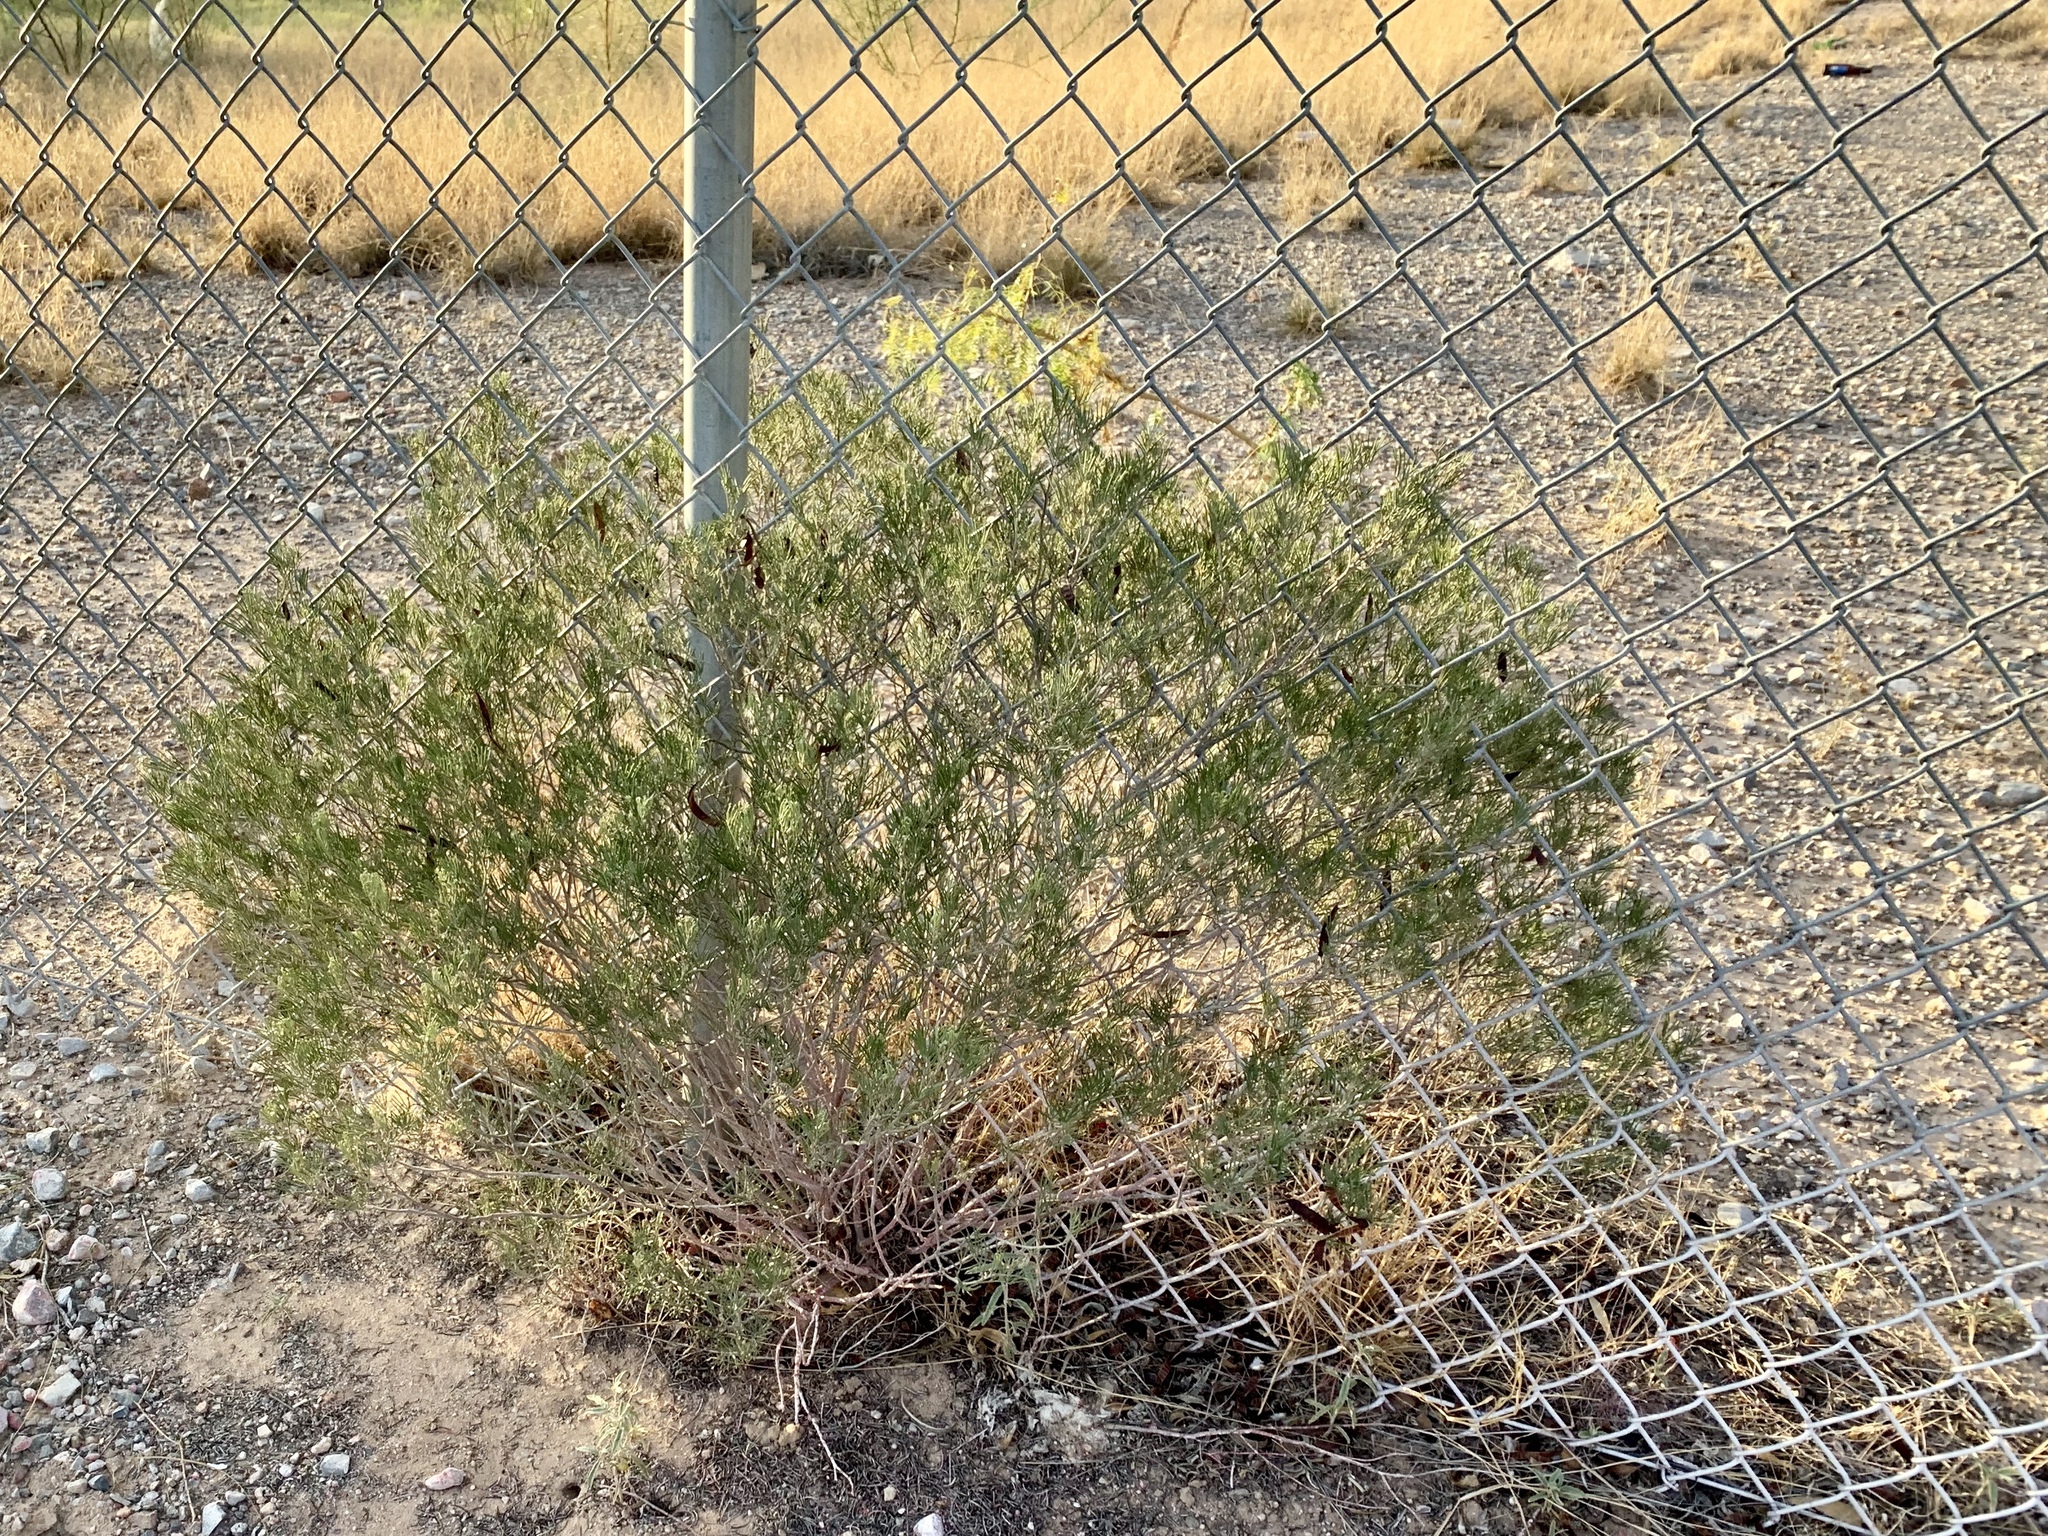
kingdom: Plantae
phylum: Tracheophyta
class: Magnoliopsida
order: Fabales
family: Fabaceae
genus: Senna
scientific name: Senna artemisioides
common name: Burnt-leaved acacia
